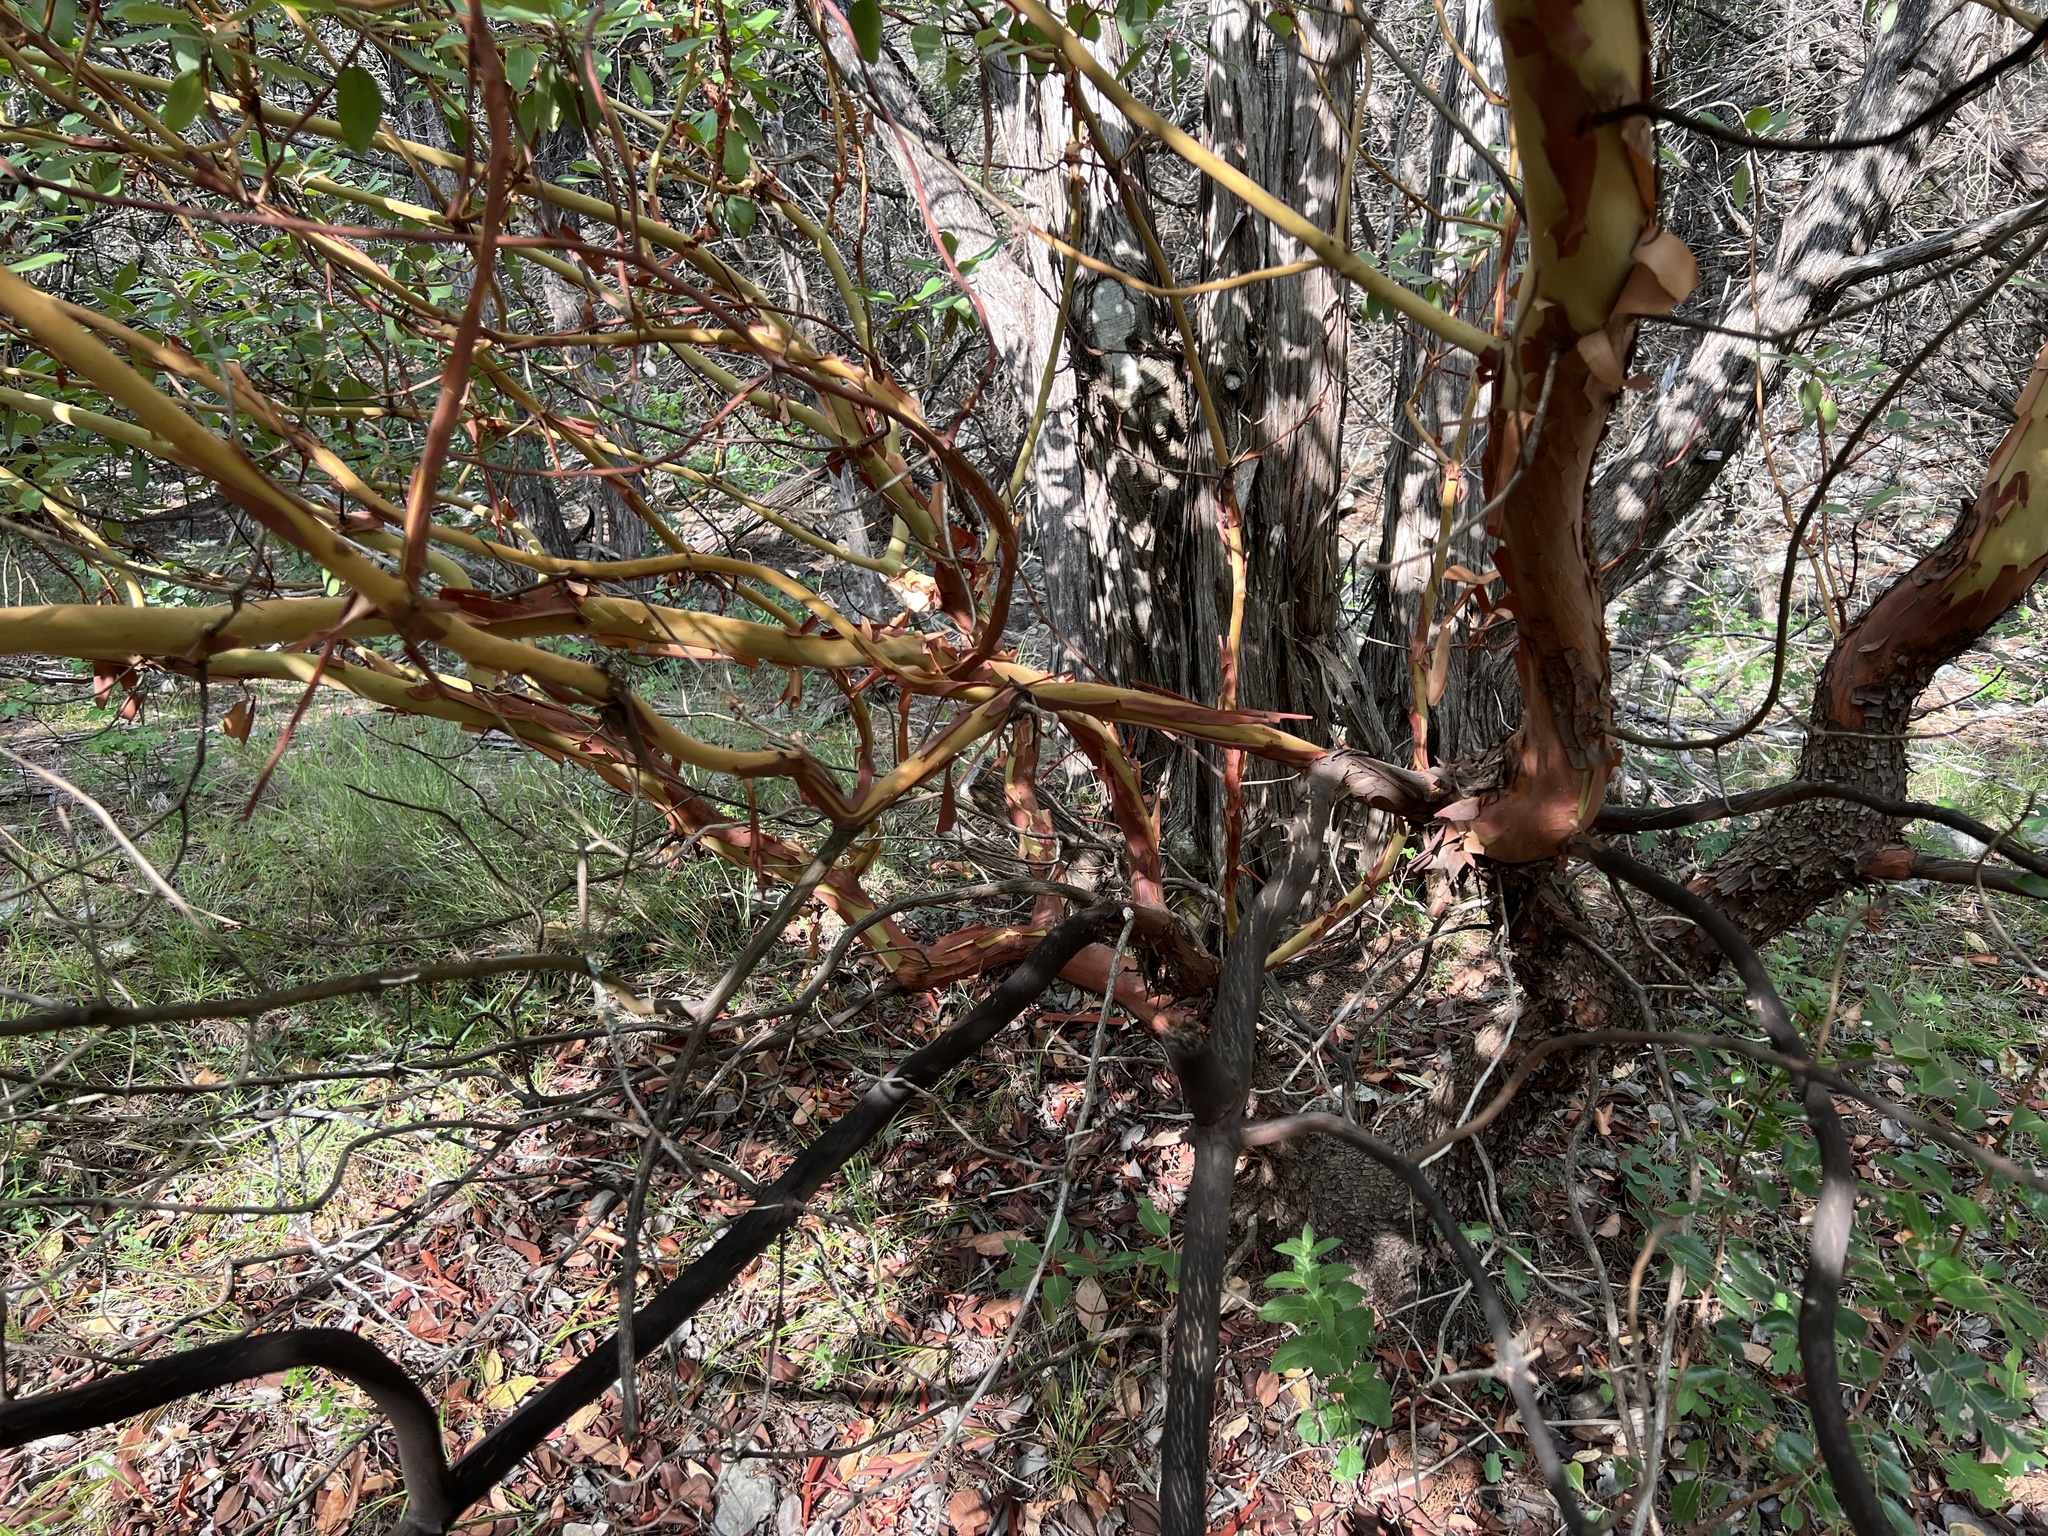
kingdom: Plantae
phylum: Tracheophyta
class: Magnoliopsida
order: Ericales
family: Ericaceae
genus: Arbutus
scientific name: Arbutus xalapensis
